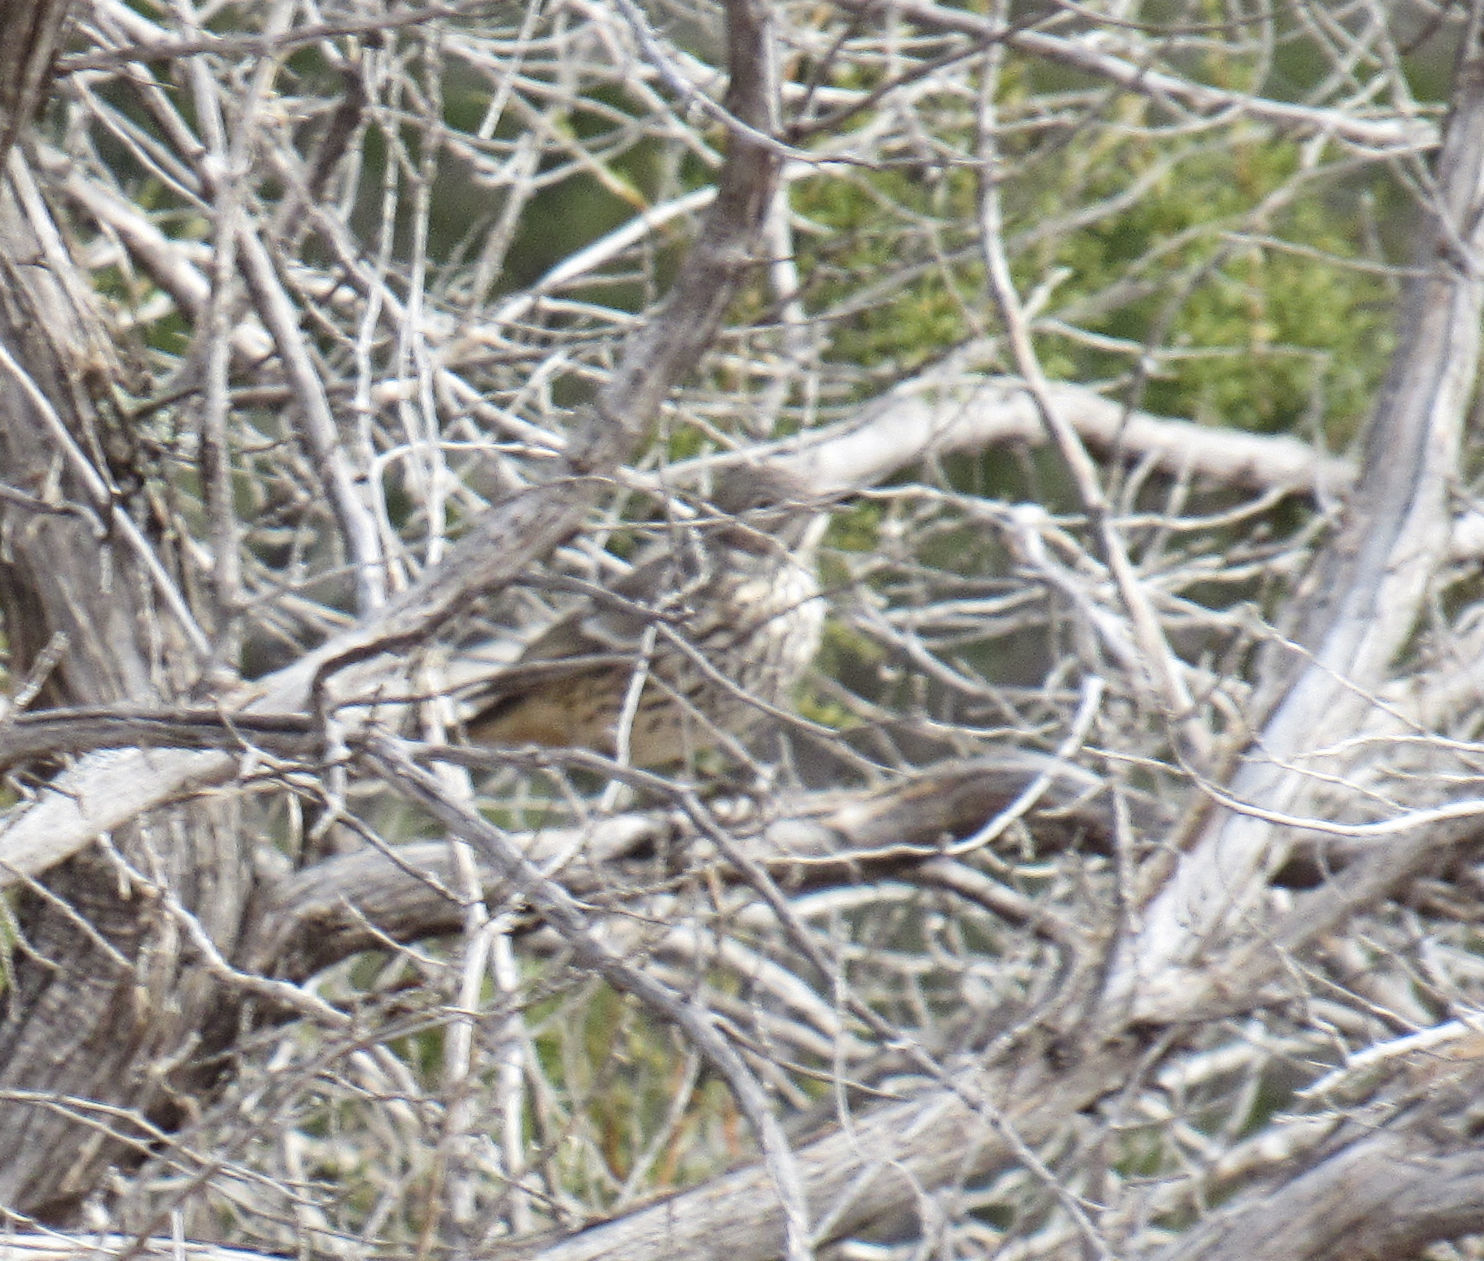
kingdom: Animalia
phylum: Chordata
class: Aves
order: Passeriformes
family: Mimidae
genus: Oreoscoptes
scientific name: Oreoscoptes montanus
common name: Sage thrasher
